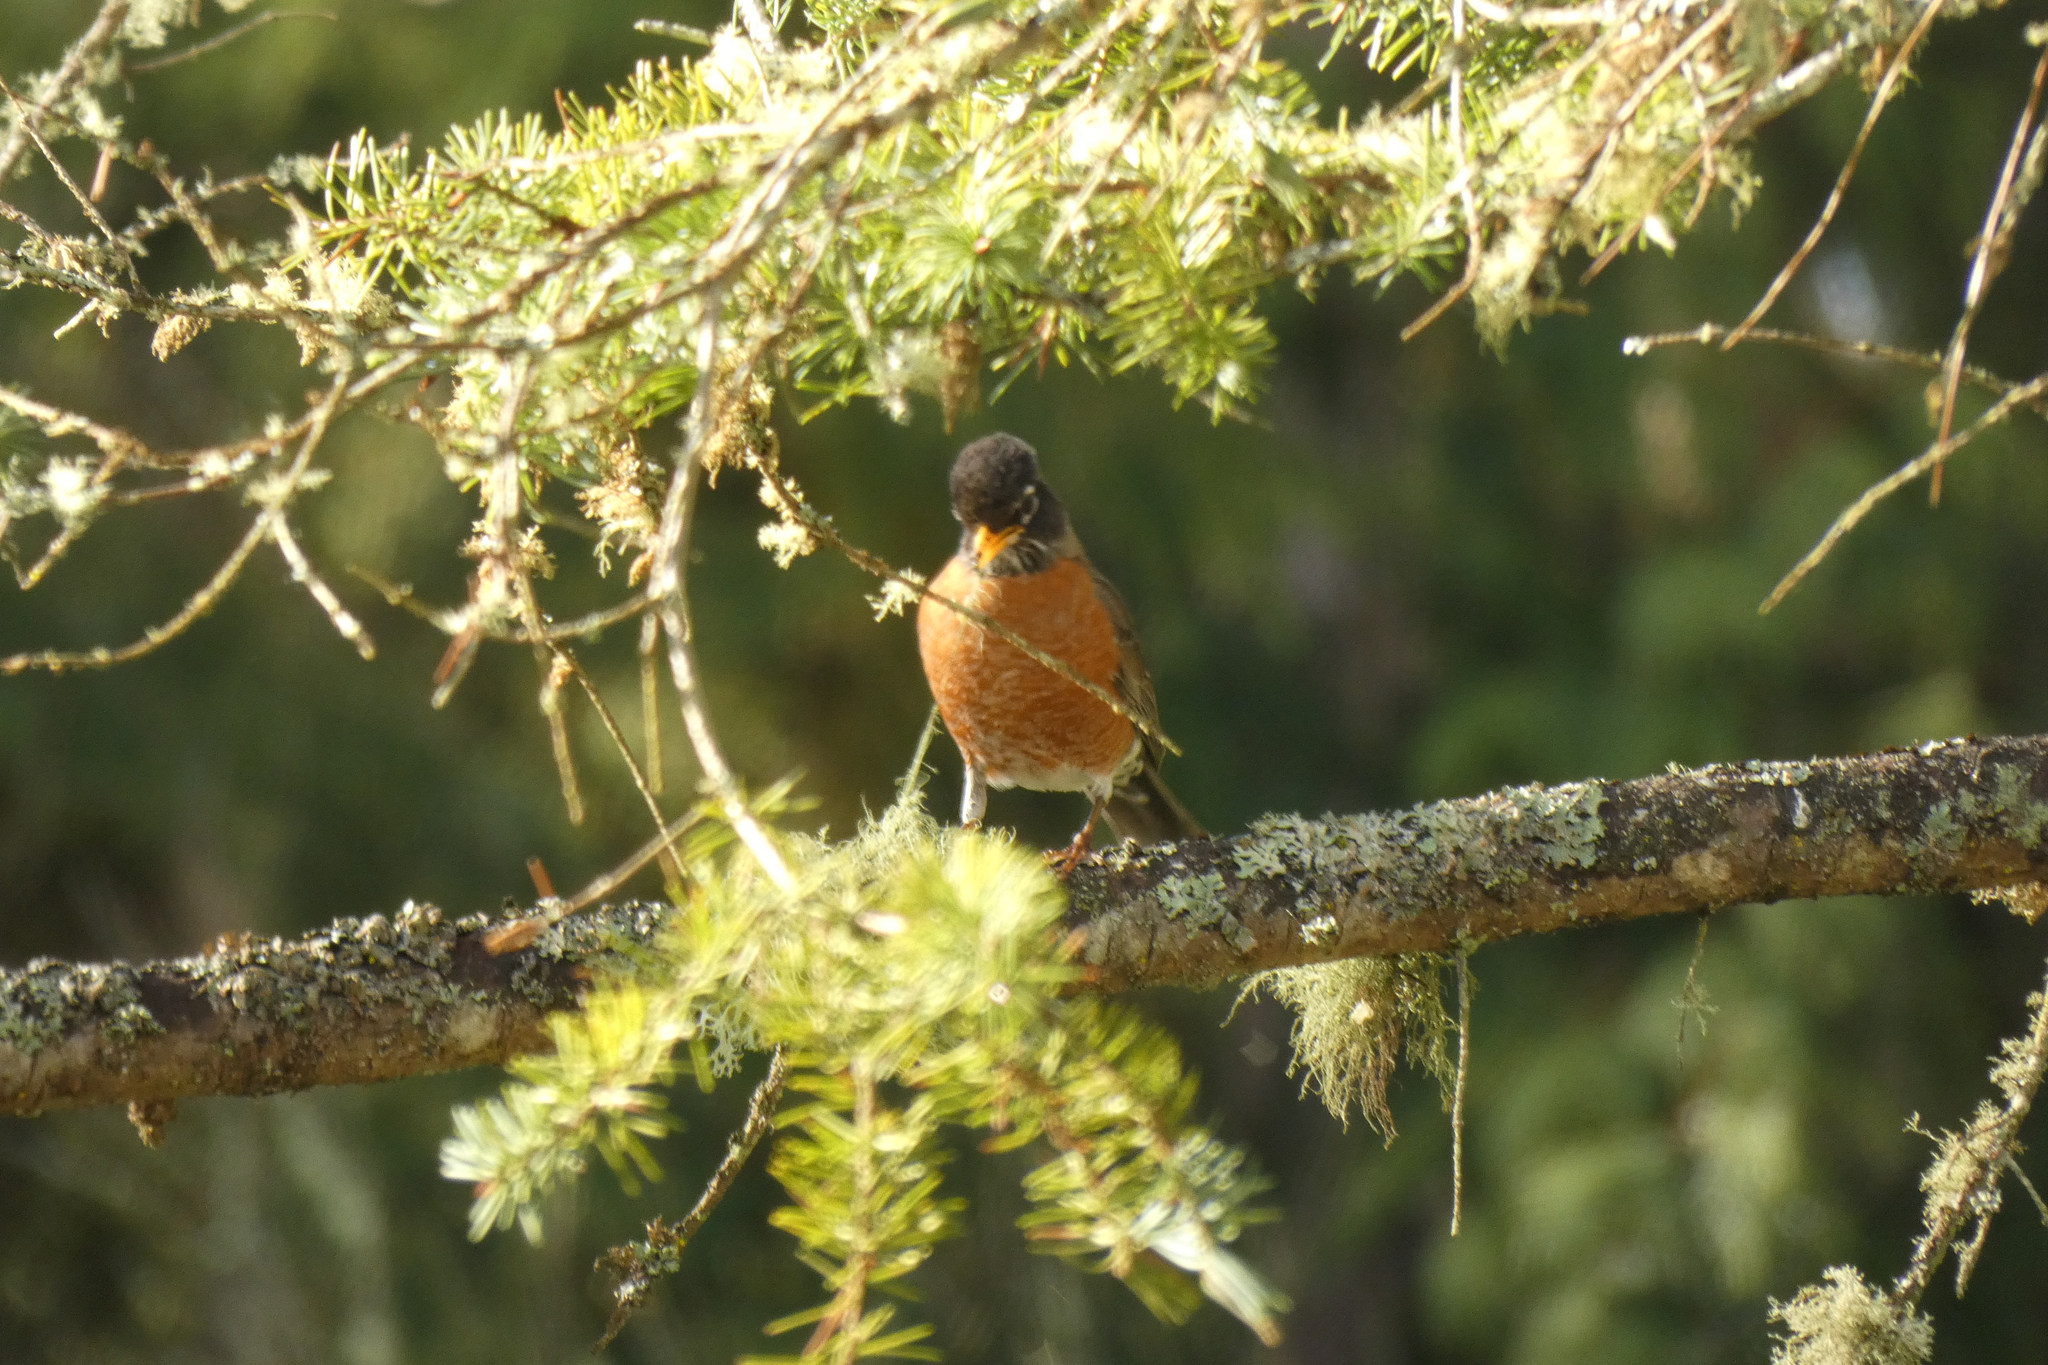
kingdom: Animalia
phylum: Chordata
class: Aves
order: Passeriformes
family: Turdidae
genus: Turdus
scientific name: Turdus migratorius
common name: American robin
